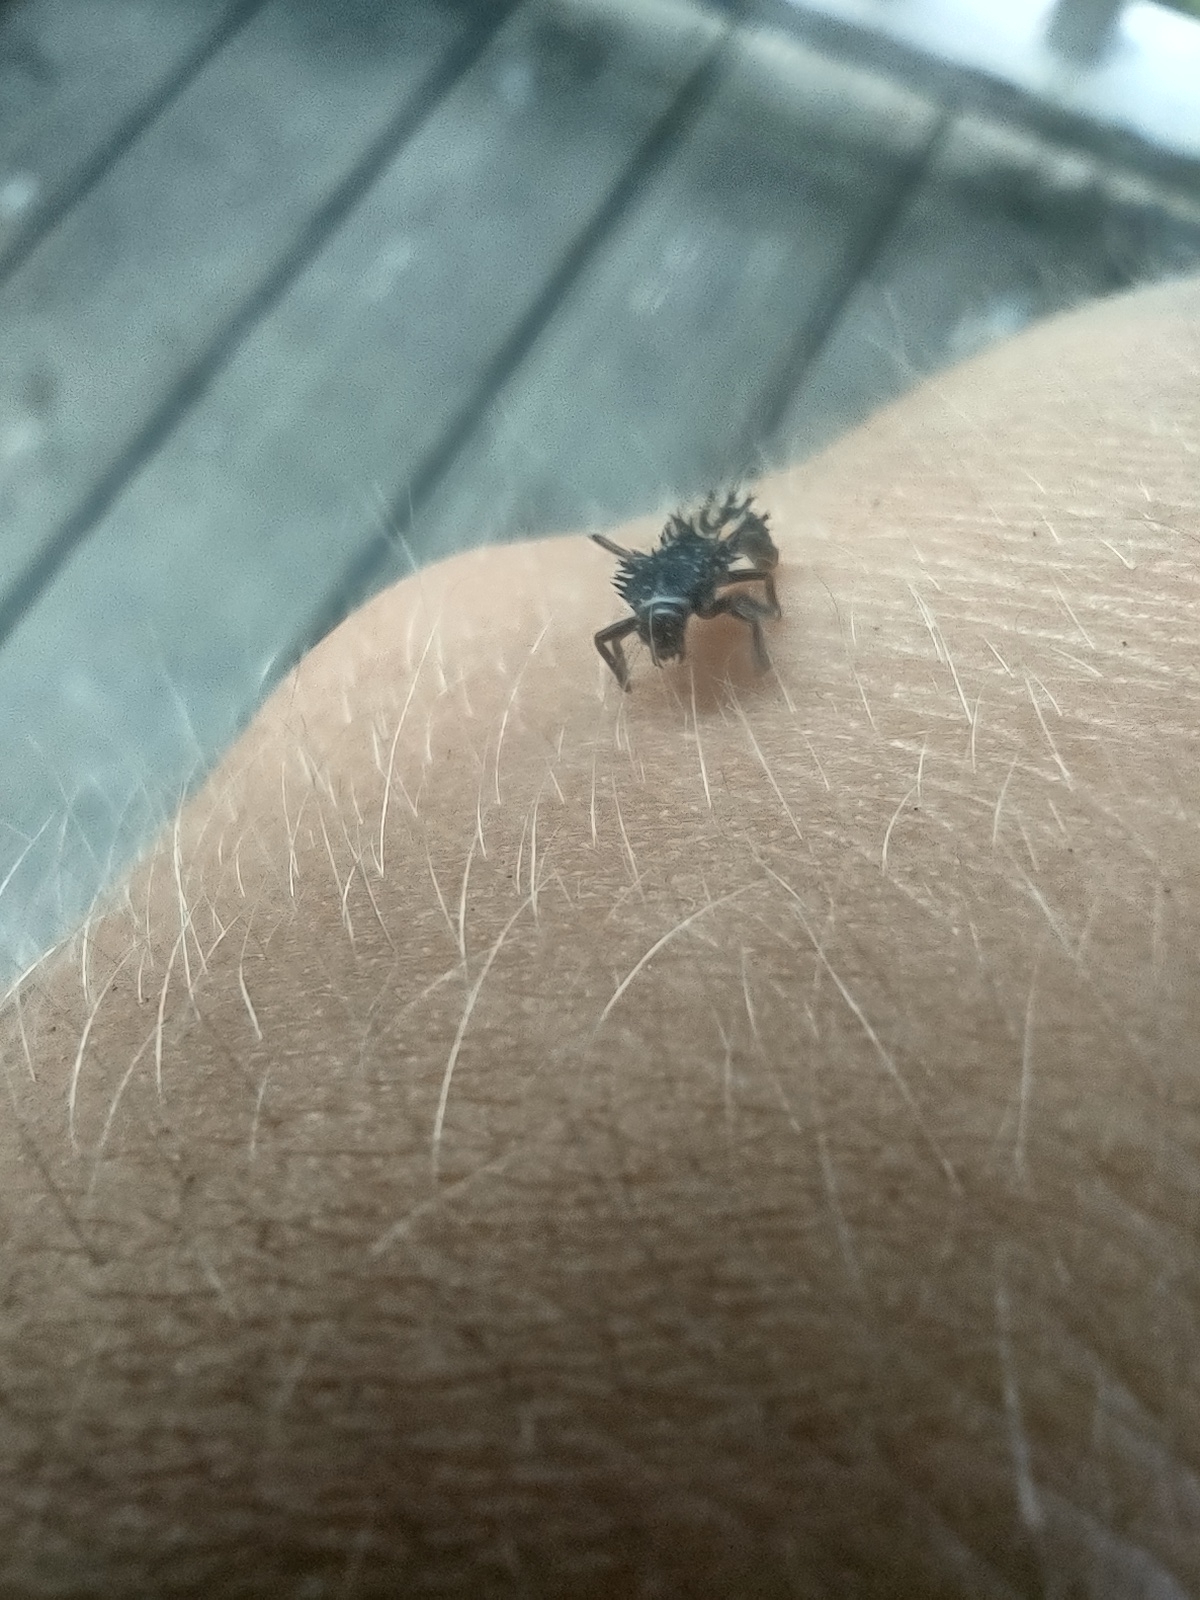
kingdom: Animalia
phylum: Arthropoda
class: Insecta
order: Coleoptera
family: Coccinellidae
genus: Harmonia
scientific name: Harmonia axyridis
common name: Harlequin ladybird
